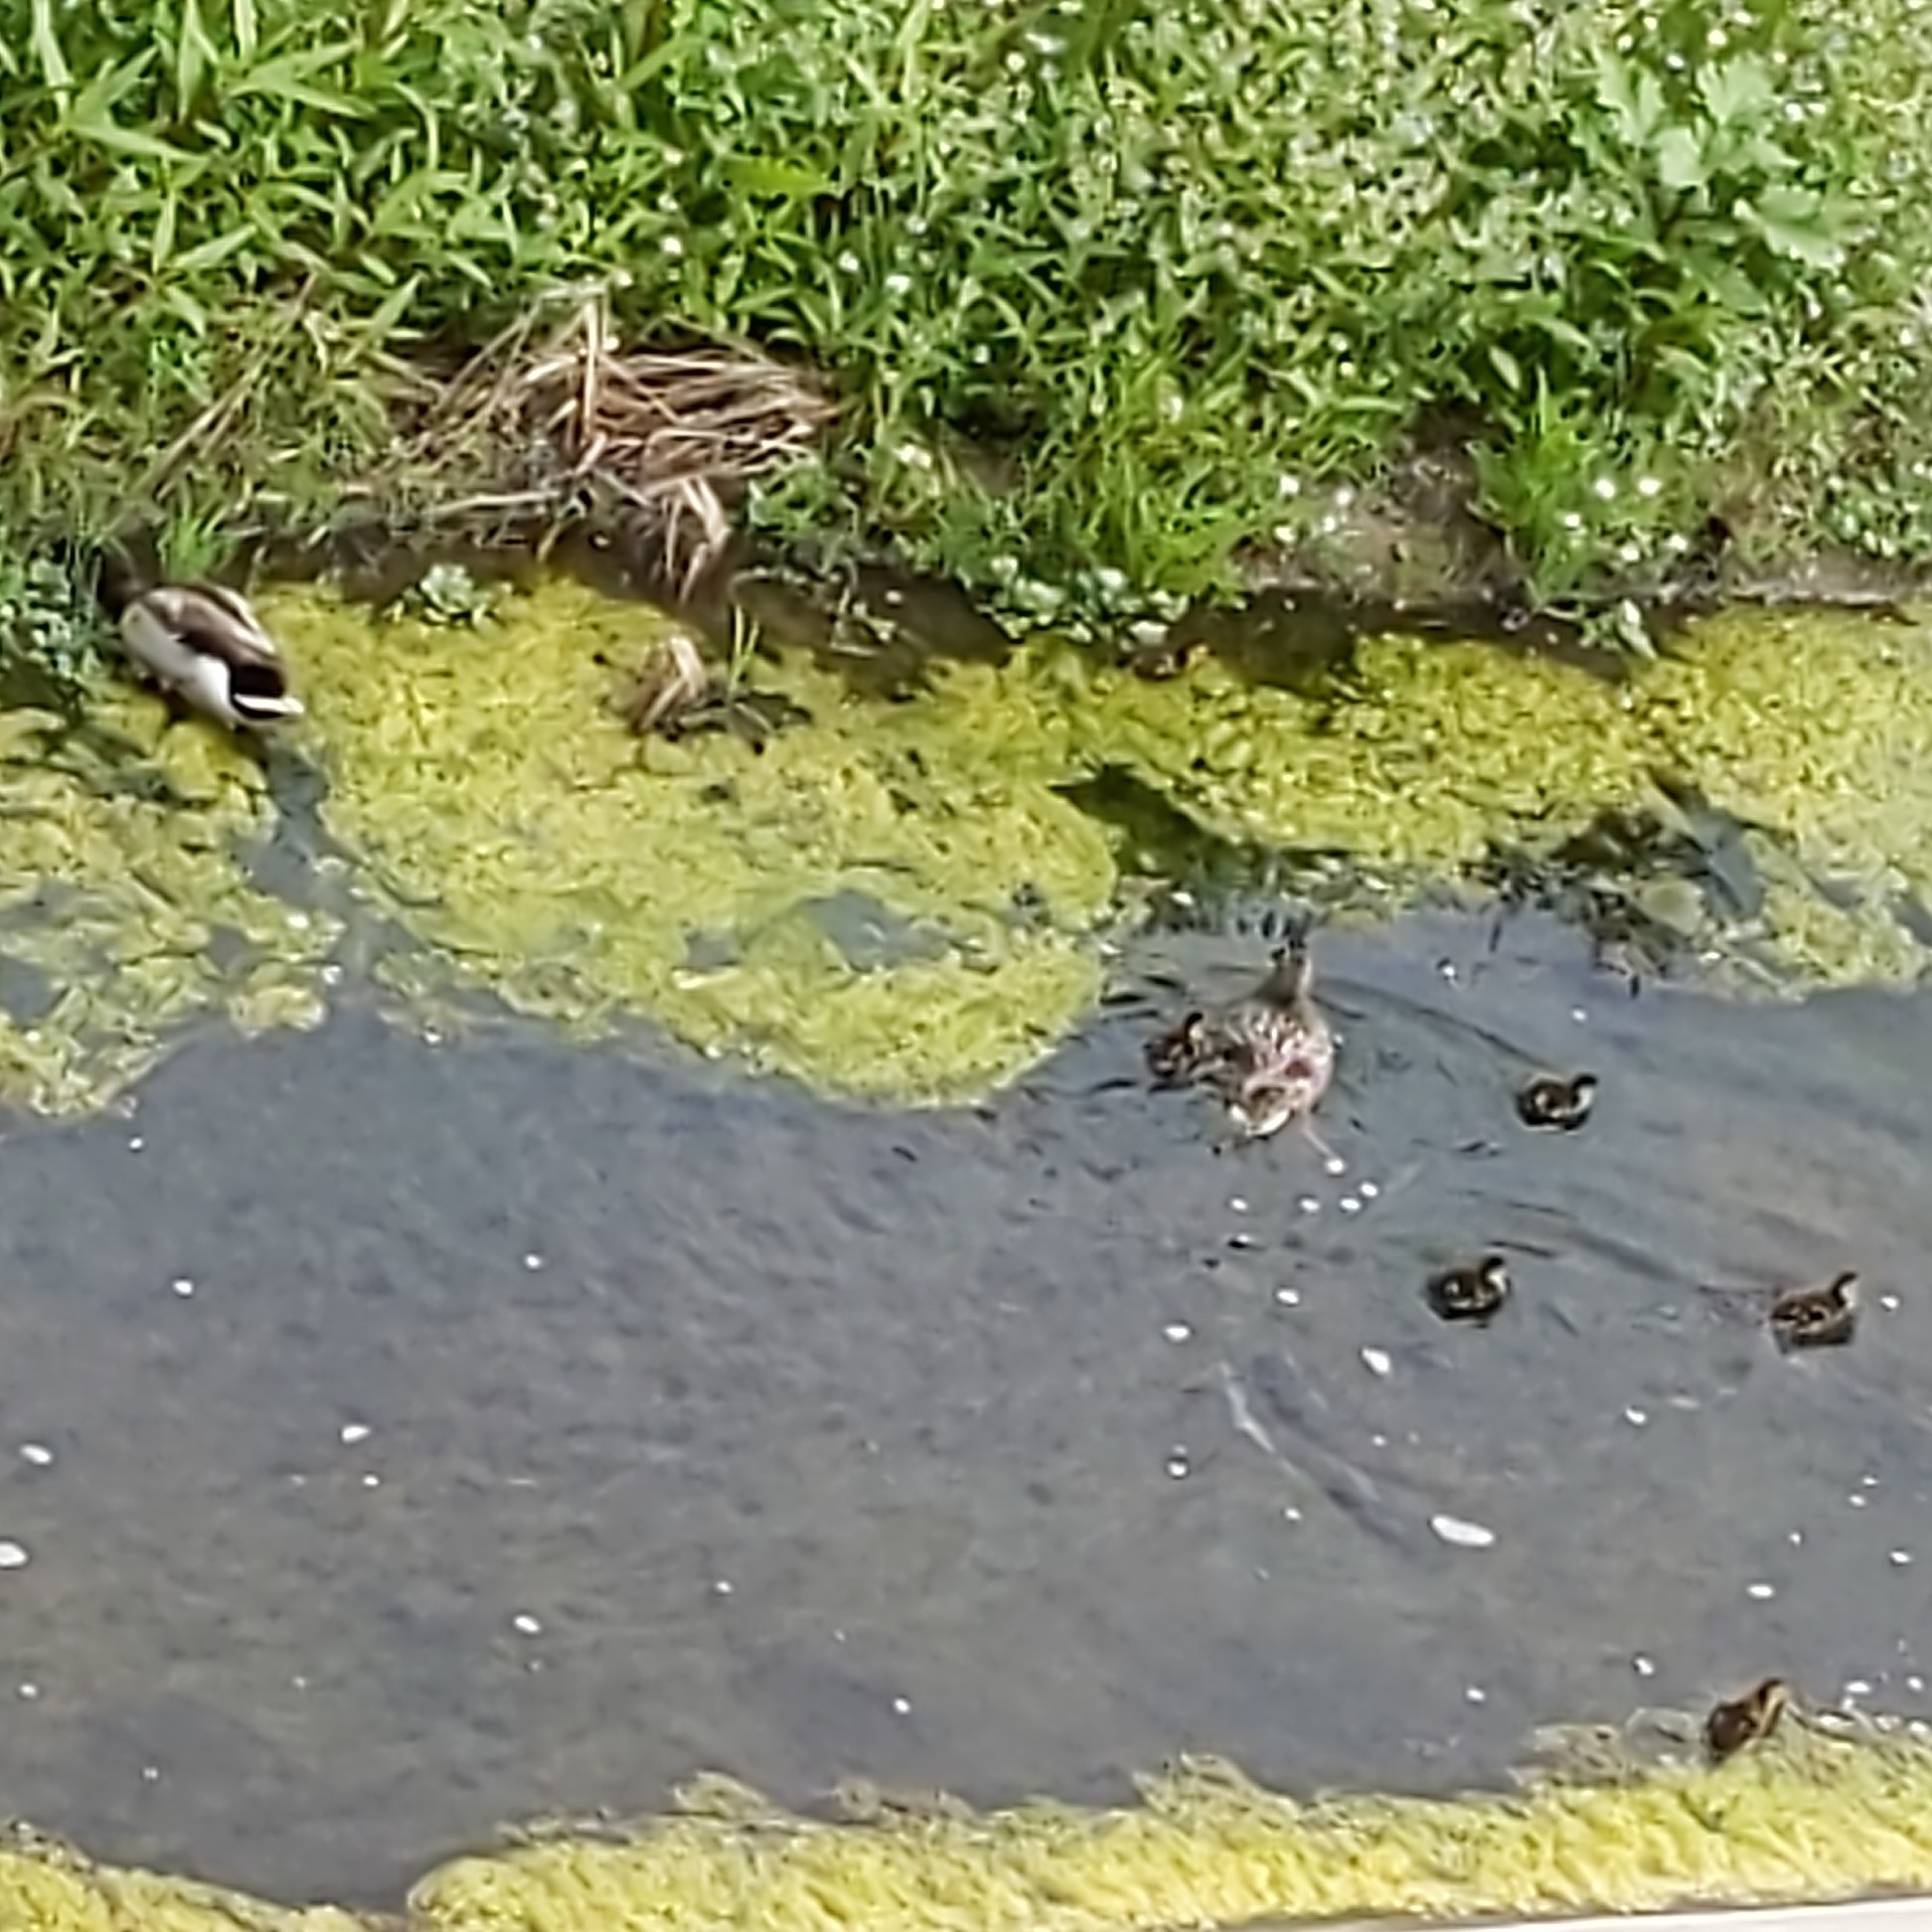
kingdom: Animalia
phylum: Chordata
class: Aves
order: Anseriformes
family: Anatidae
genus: Anas
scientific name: Anas platyrhynchos
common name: Mallard
